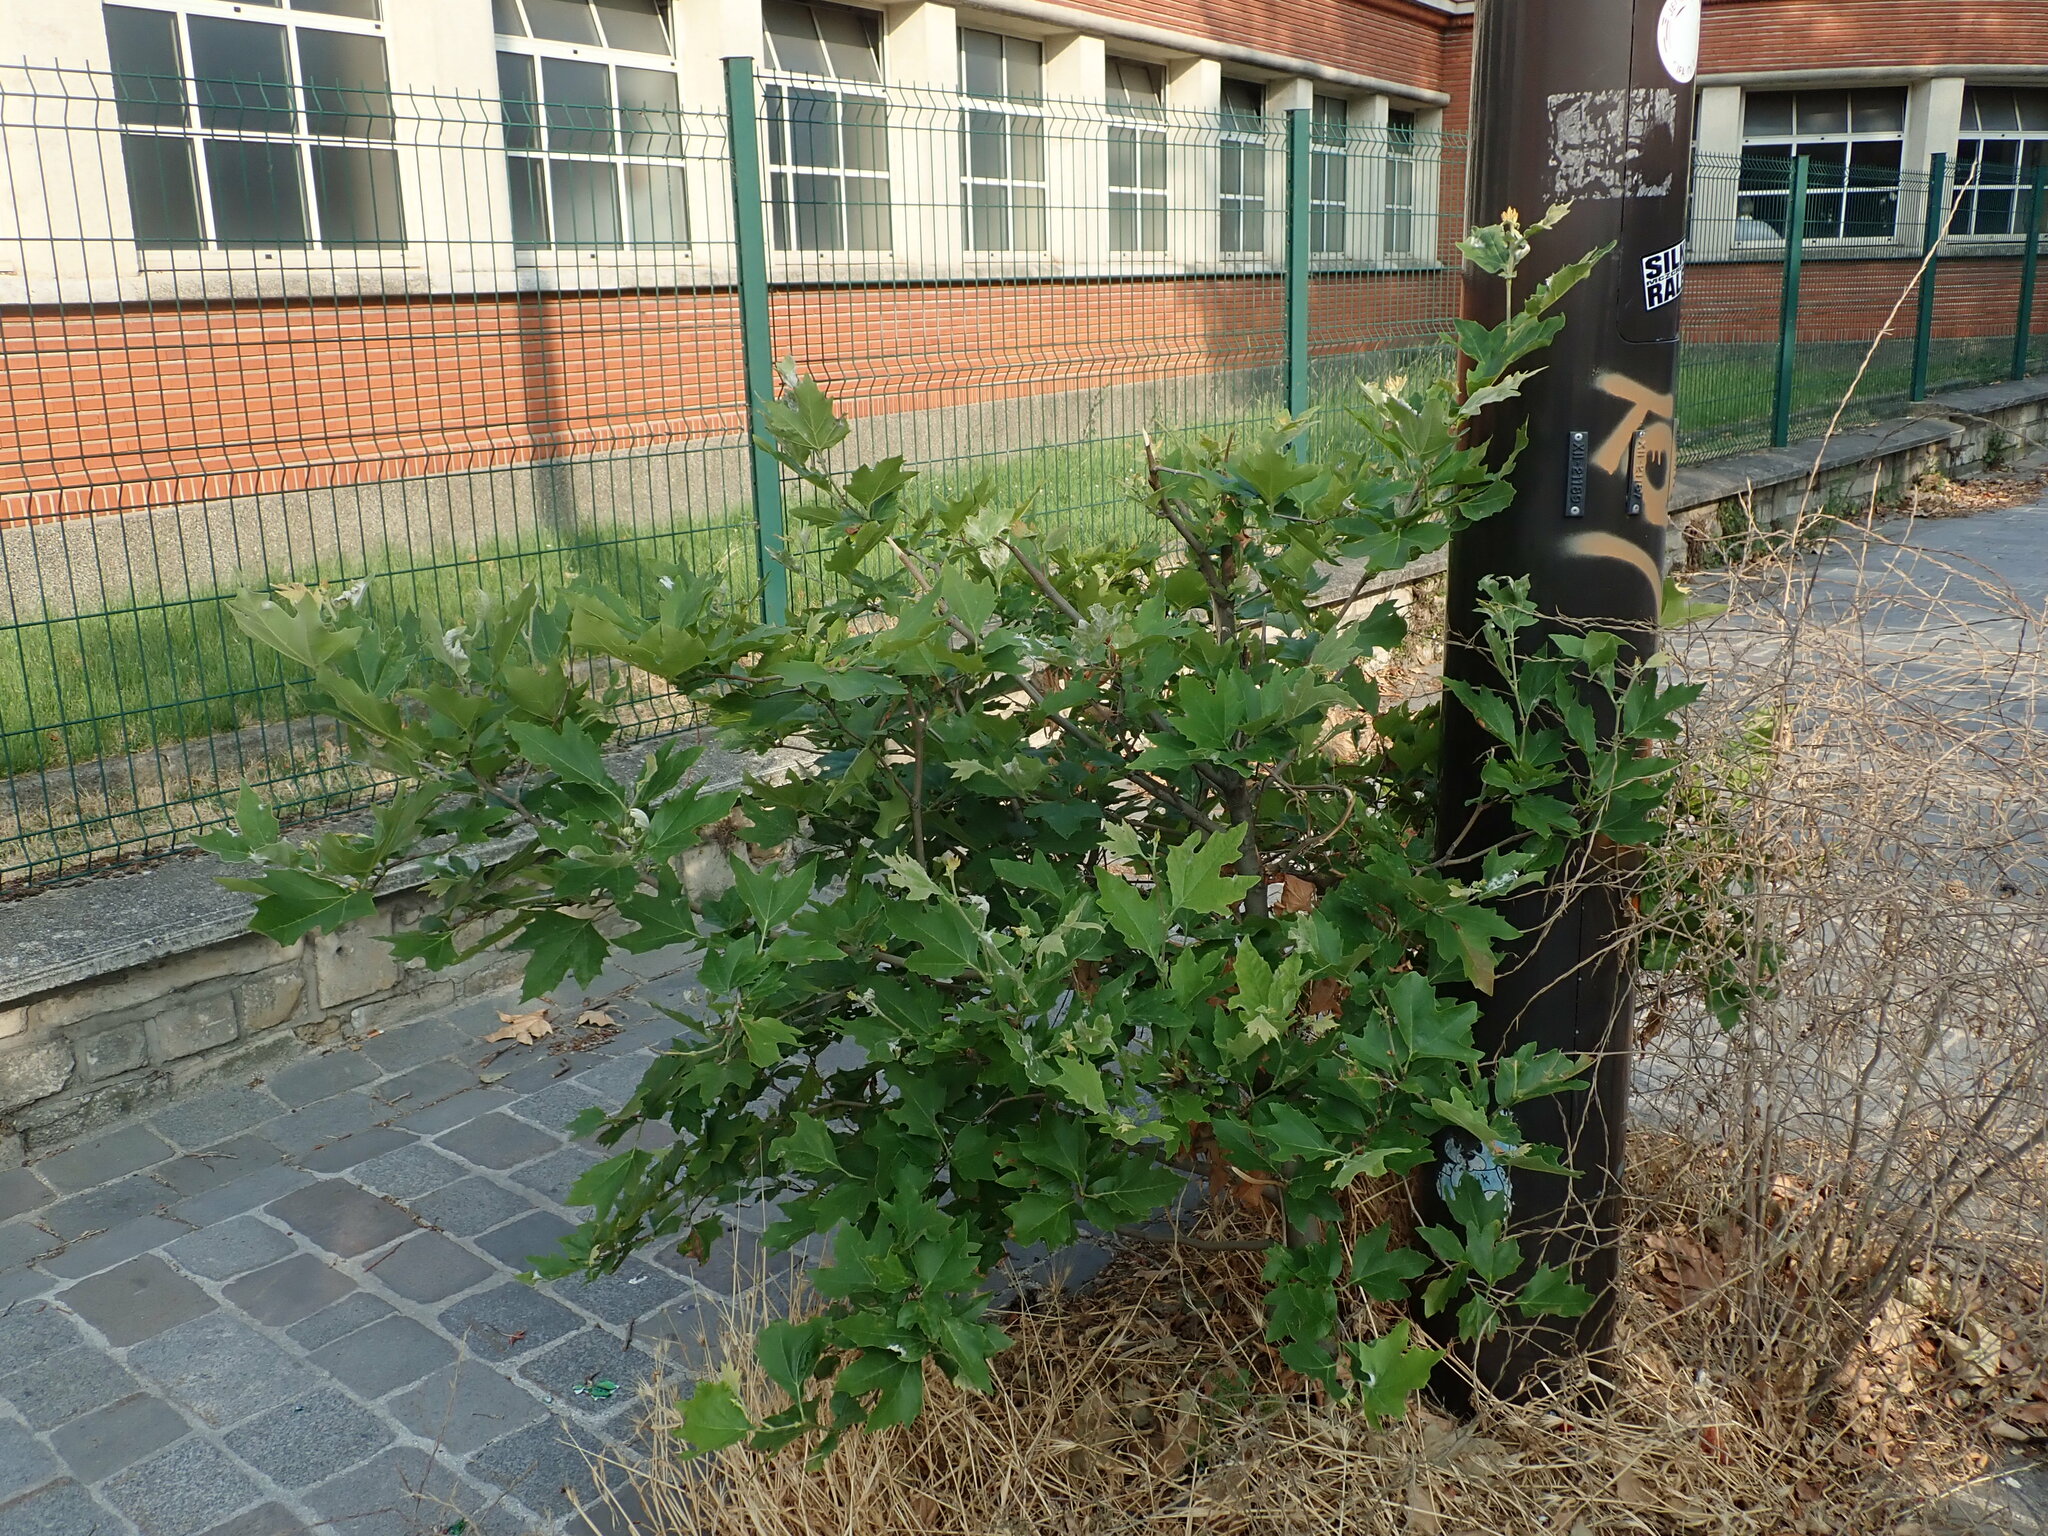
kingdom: Plantae
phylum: Tracheophyta
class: Magnoliopsida
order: Proteales
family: Platanaceae
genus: Platanus
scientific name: Platanus hispanica
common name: London plane
